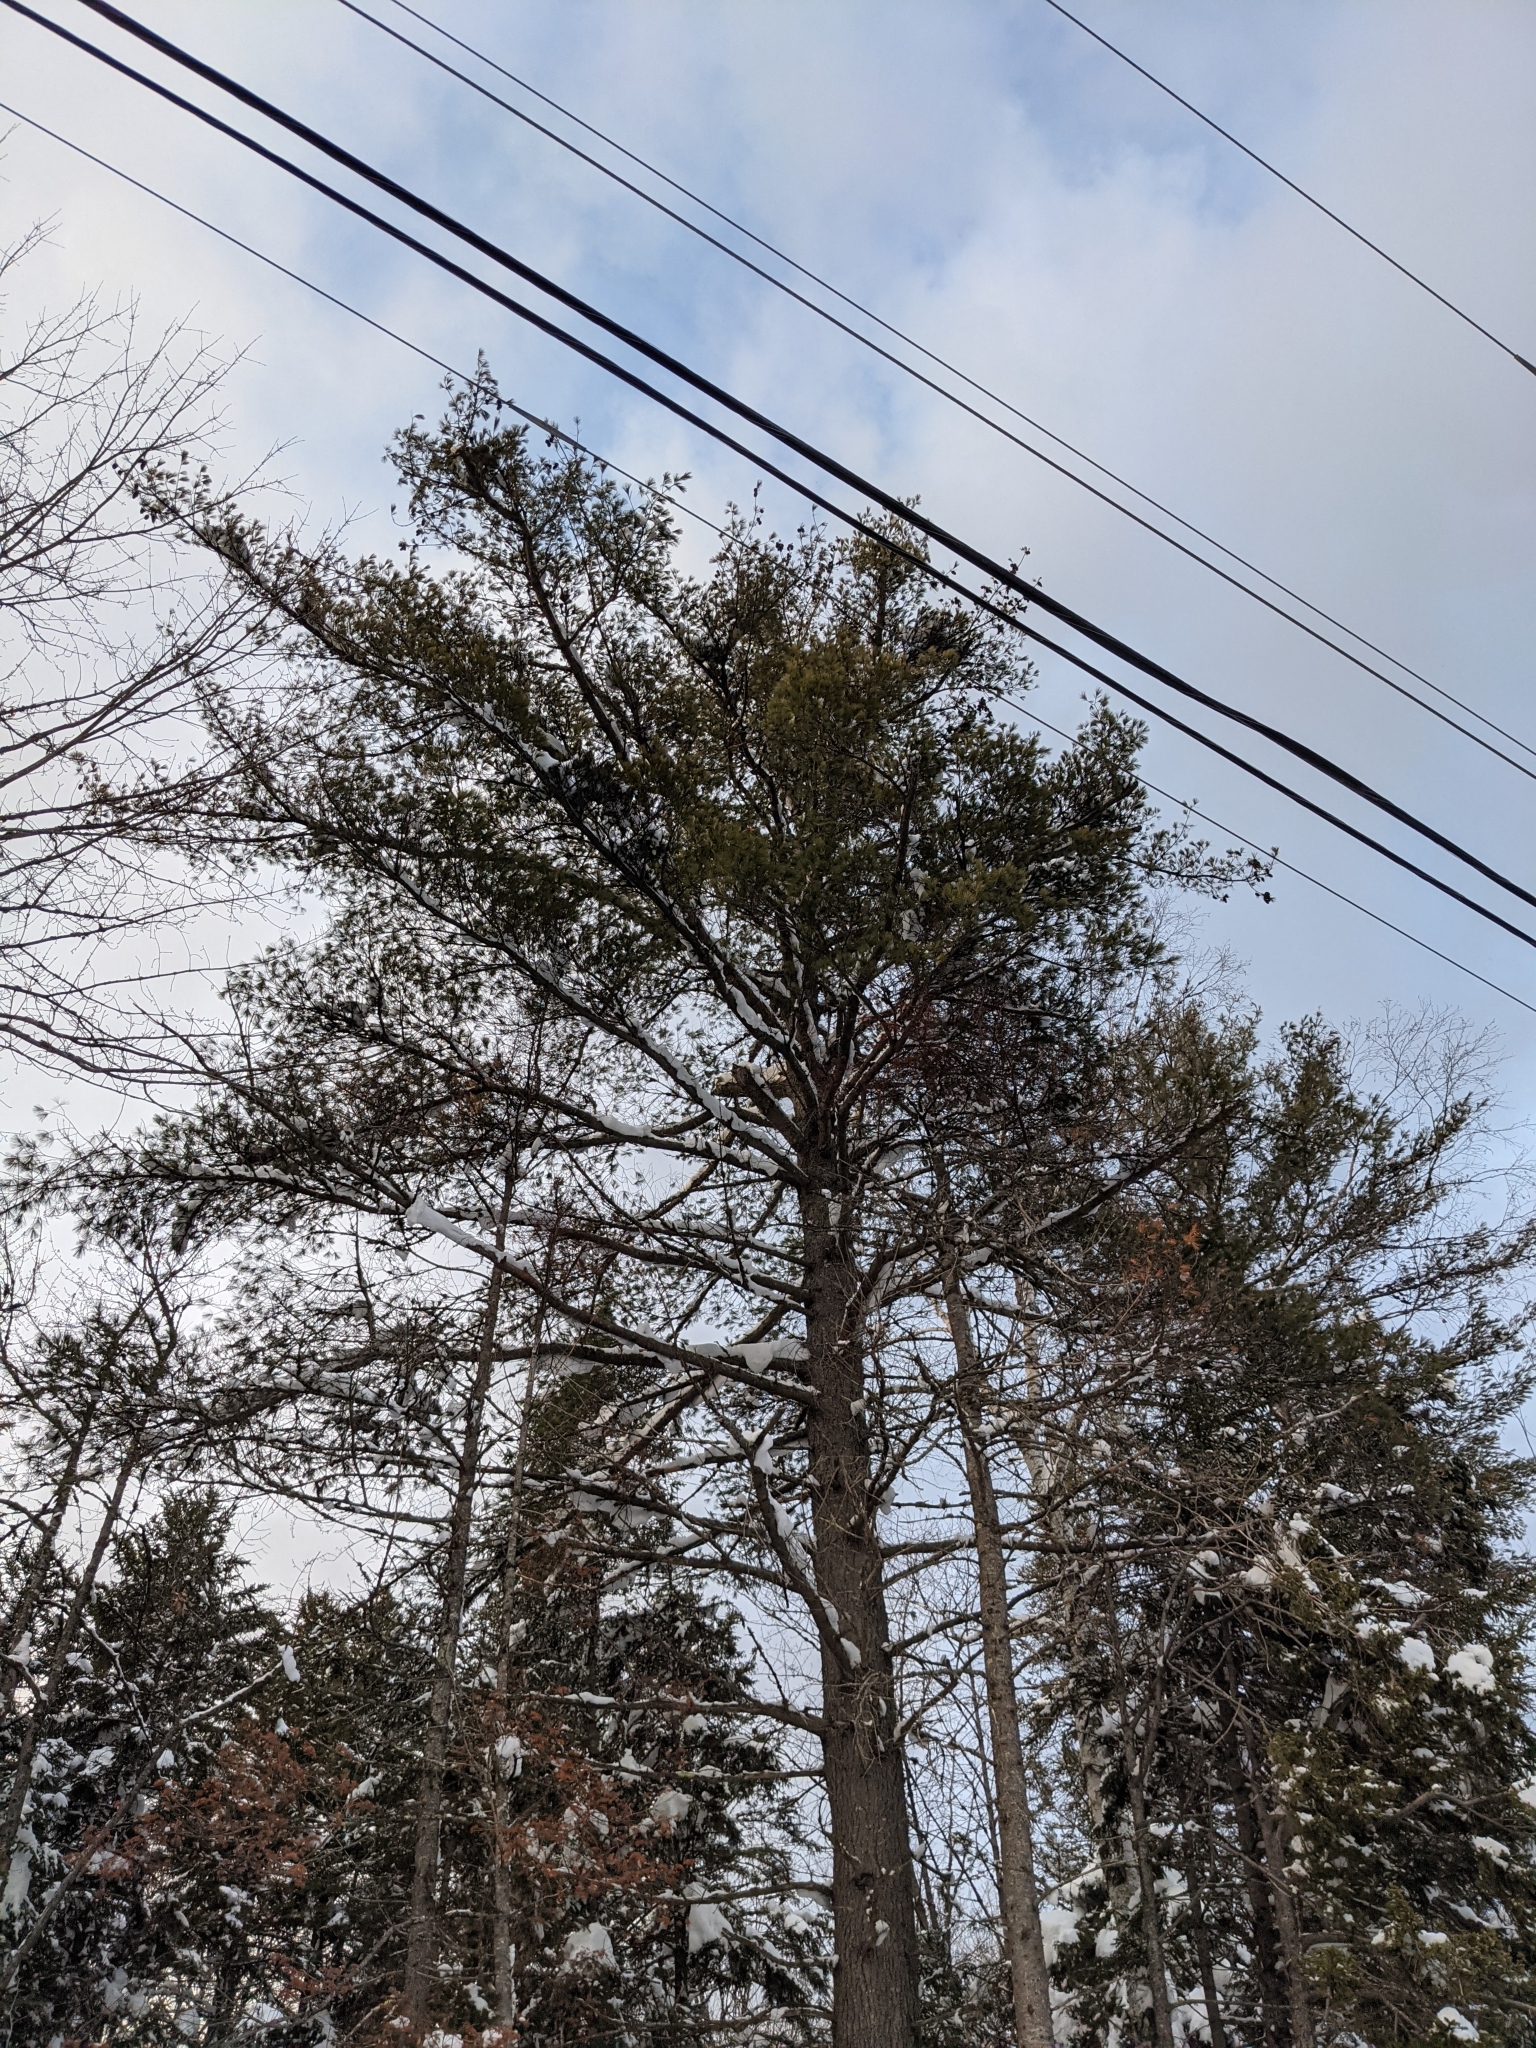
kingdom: Plantae
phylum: Tracheophyta
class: Pinopsida
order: Pinales
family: Pinaceae
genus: Pinus
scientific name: Pinus strobus
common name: Weymouth pine
